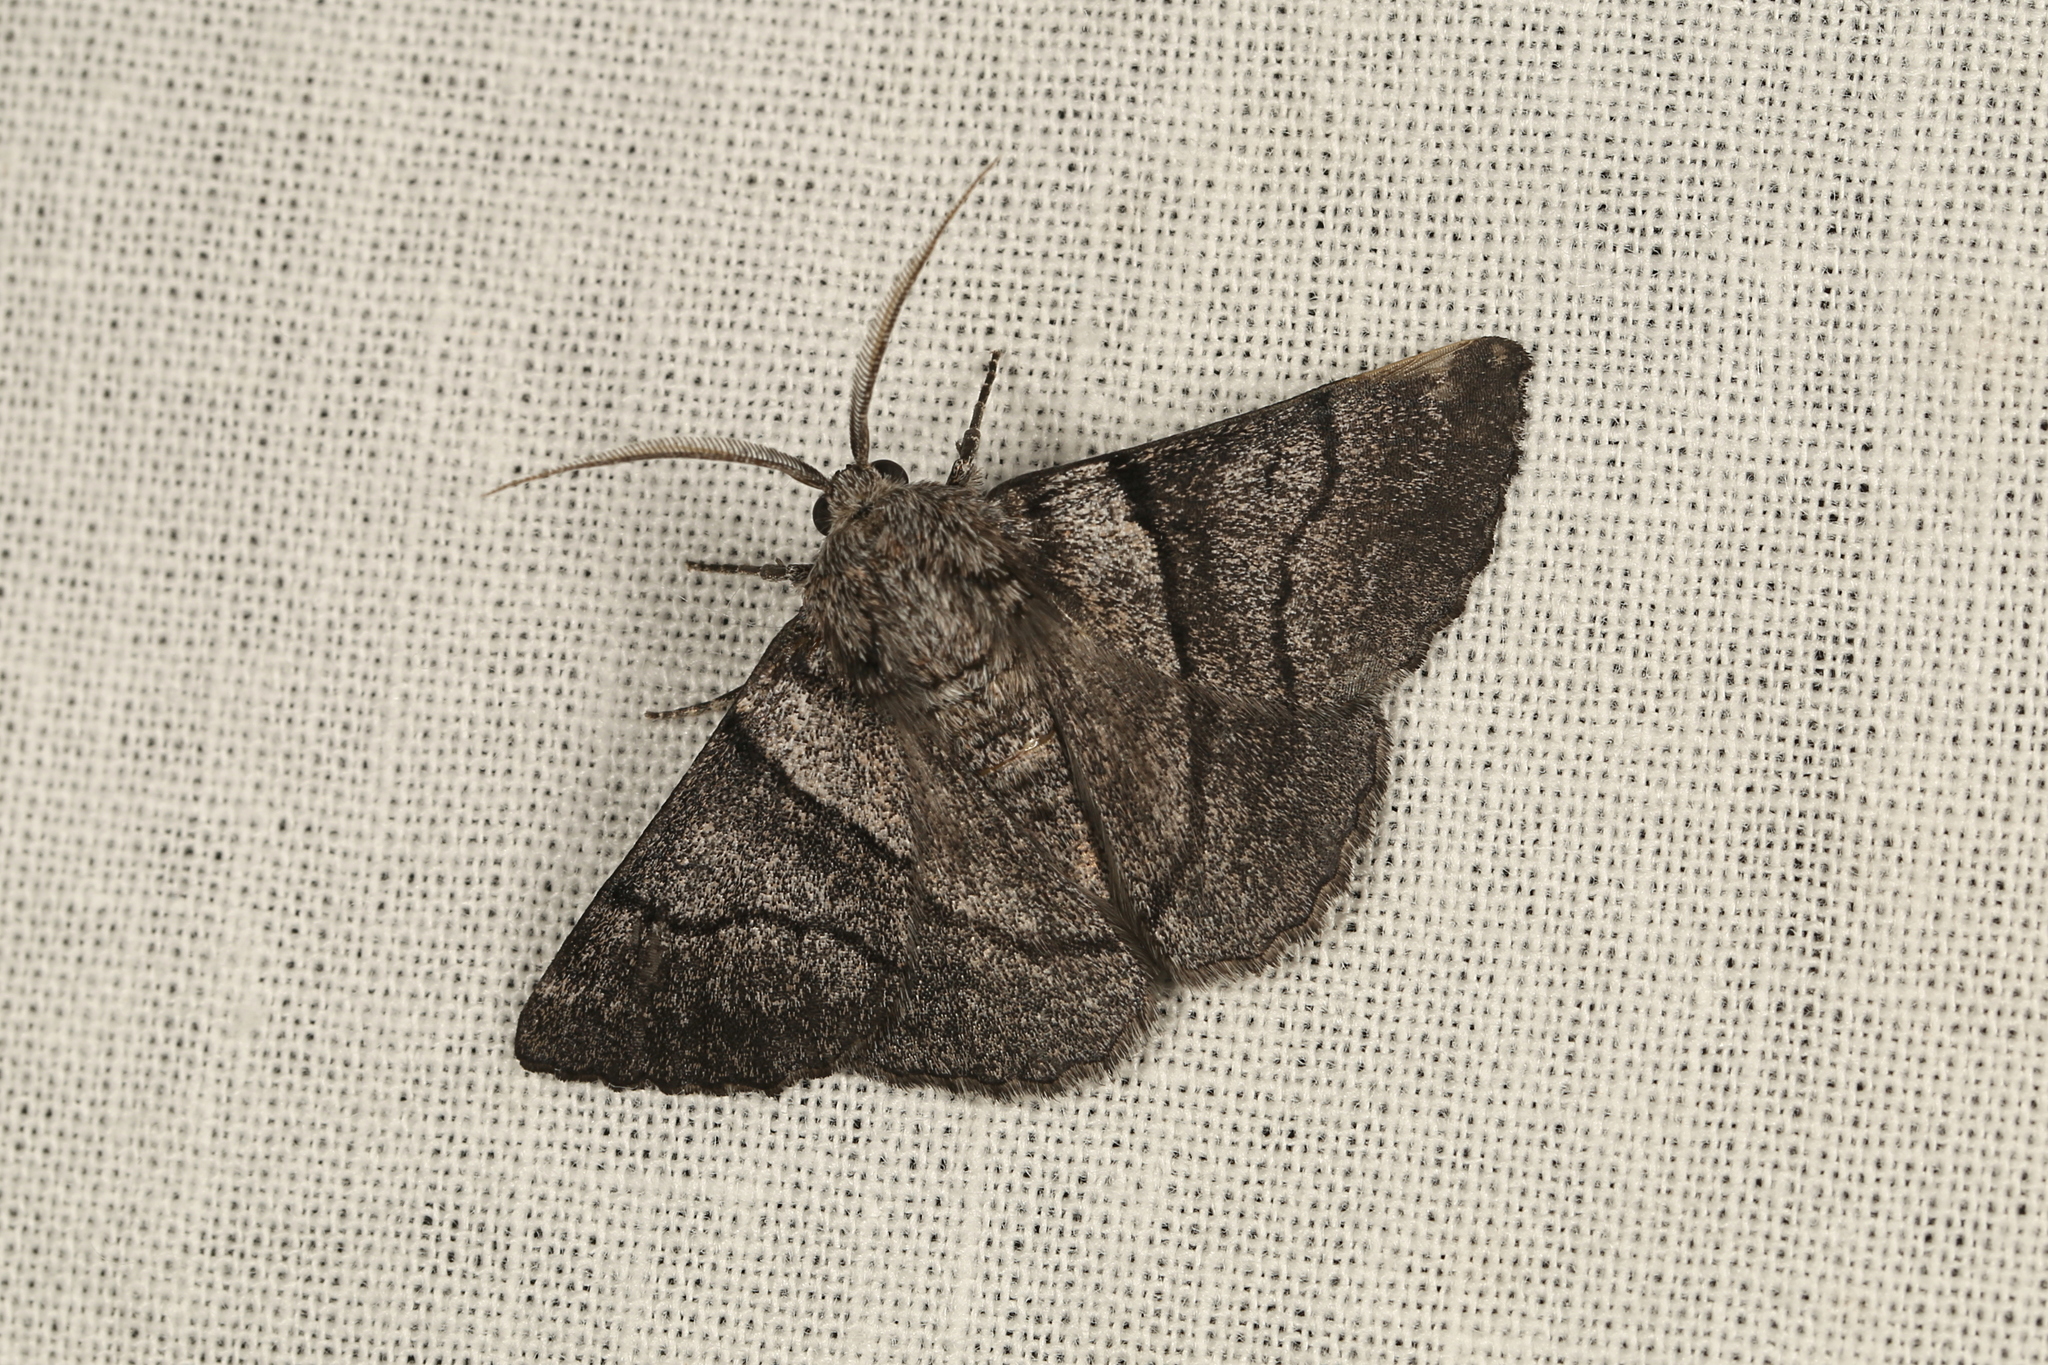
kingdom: Animalia
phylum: Arthropoda
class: Insecta
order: Lepidoptera
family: Geometridae
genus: Hypobapta
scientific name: Hypobapta xenomorpha
